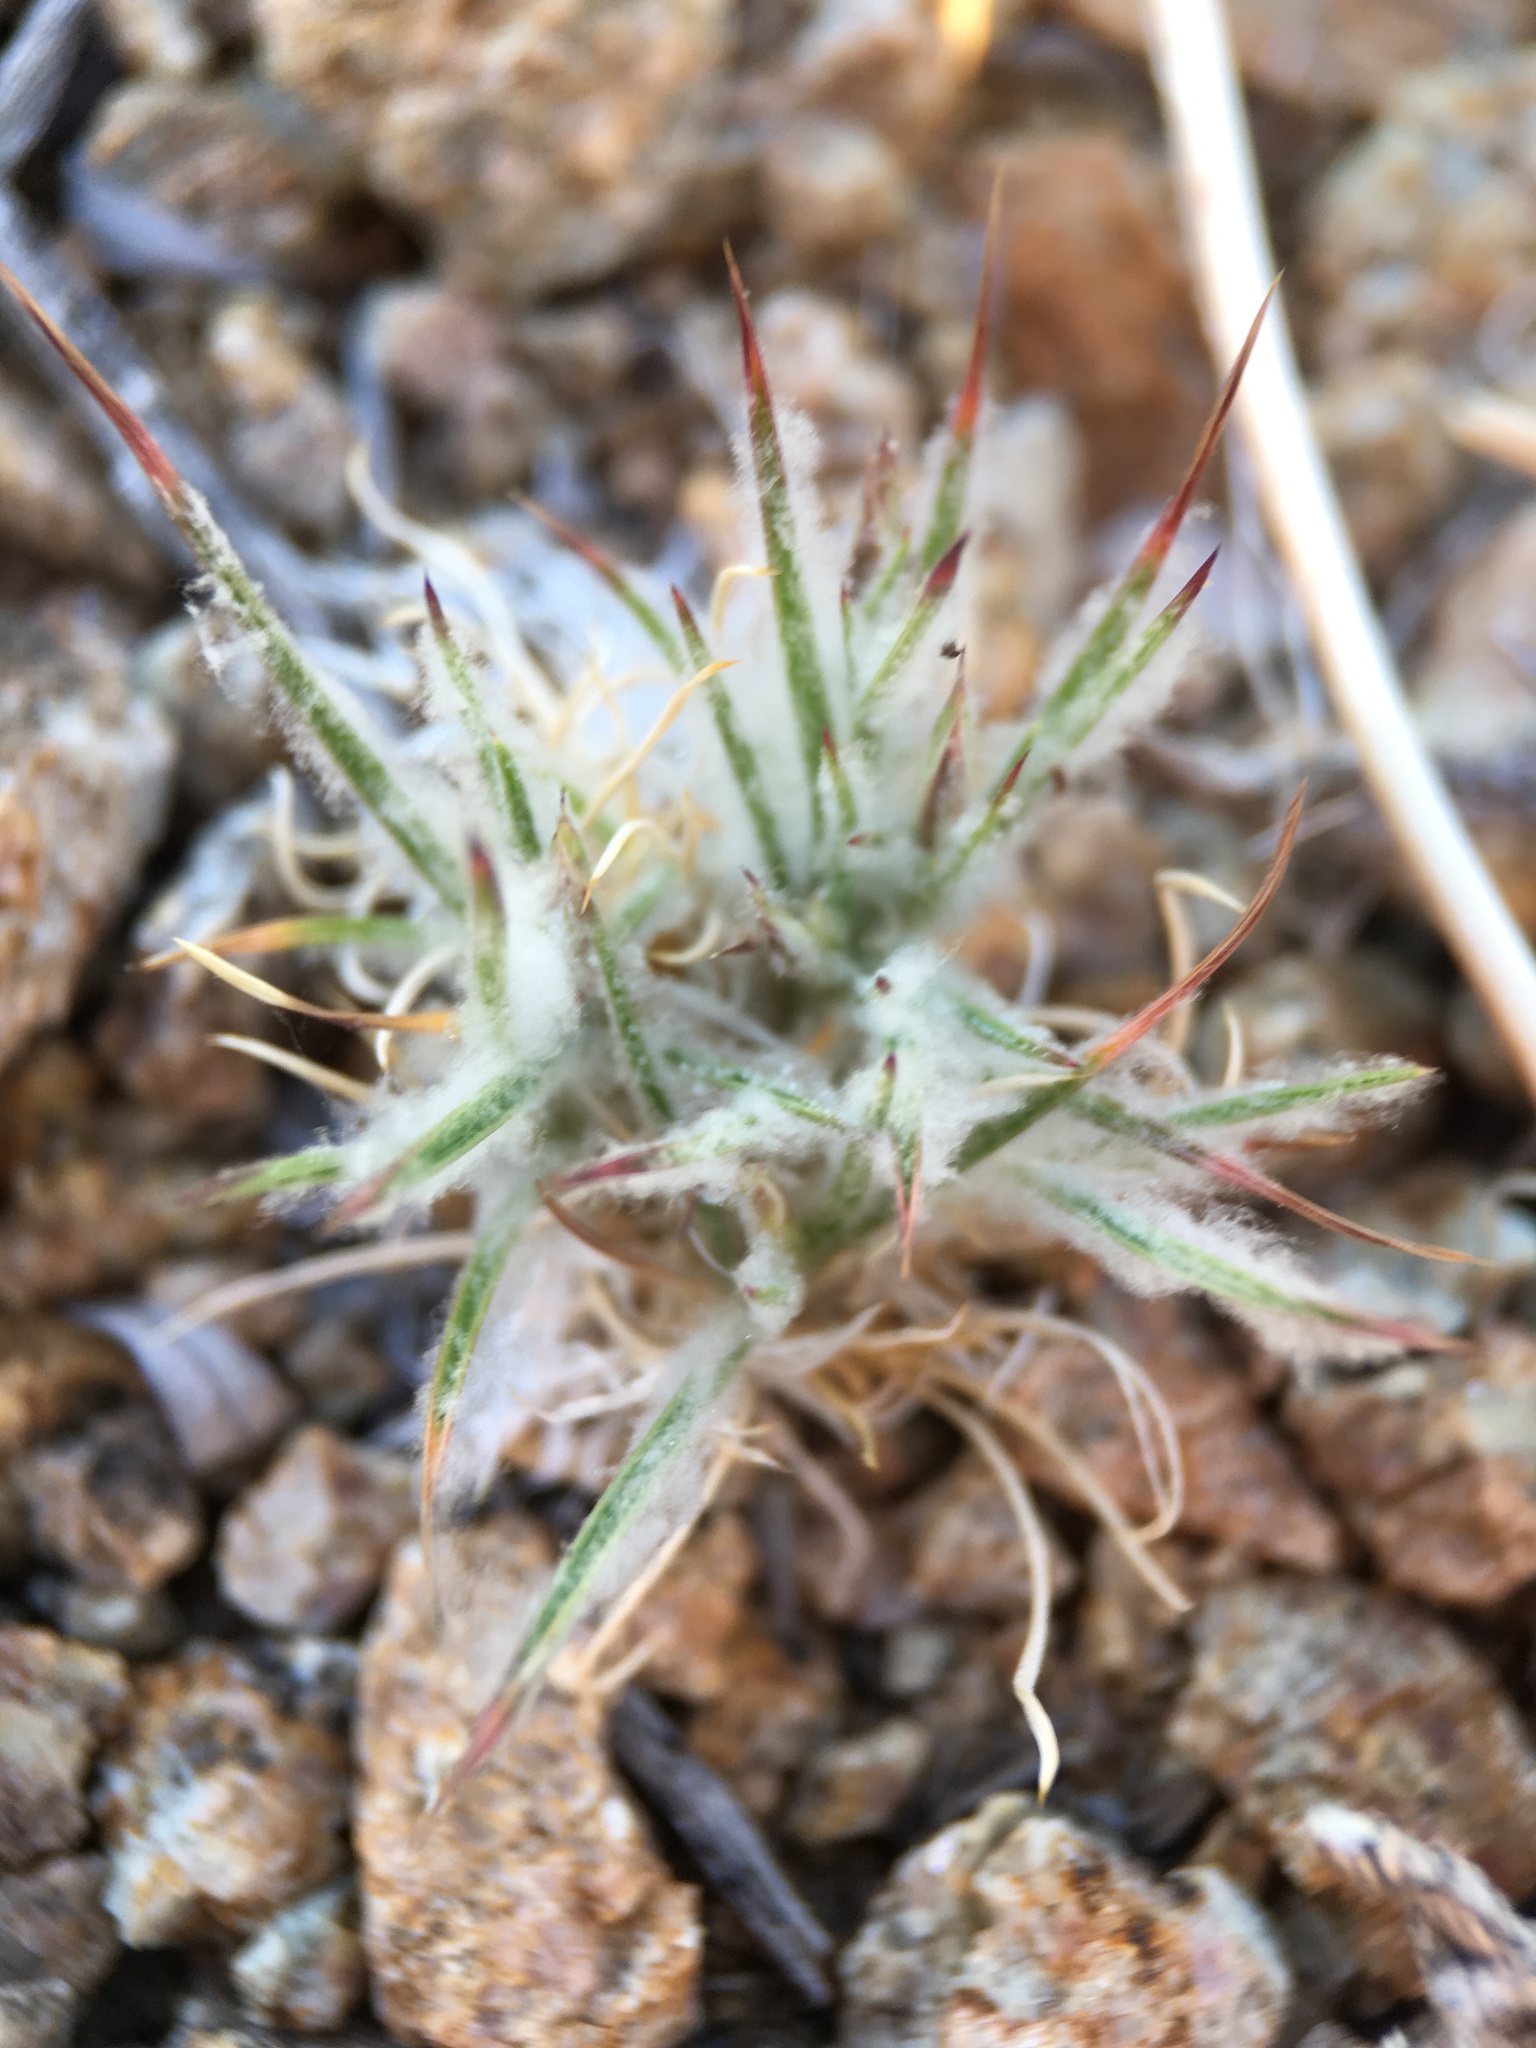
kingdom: Plantae
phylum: Tracheophyta
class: Liliopsida
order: Poales
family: Poaceae
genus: Dasyochloa
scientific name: Dasyochloa pulchella
